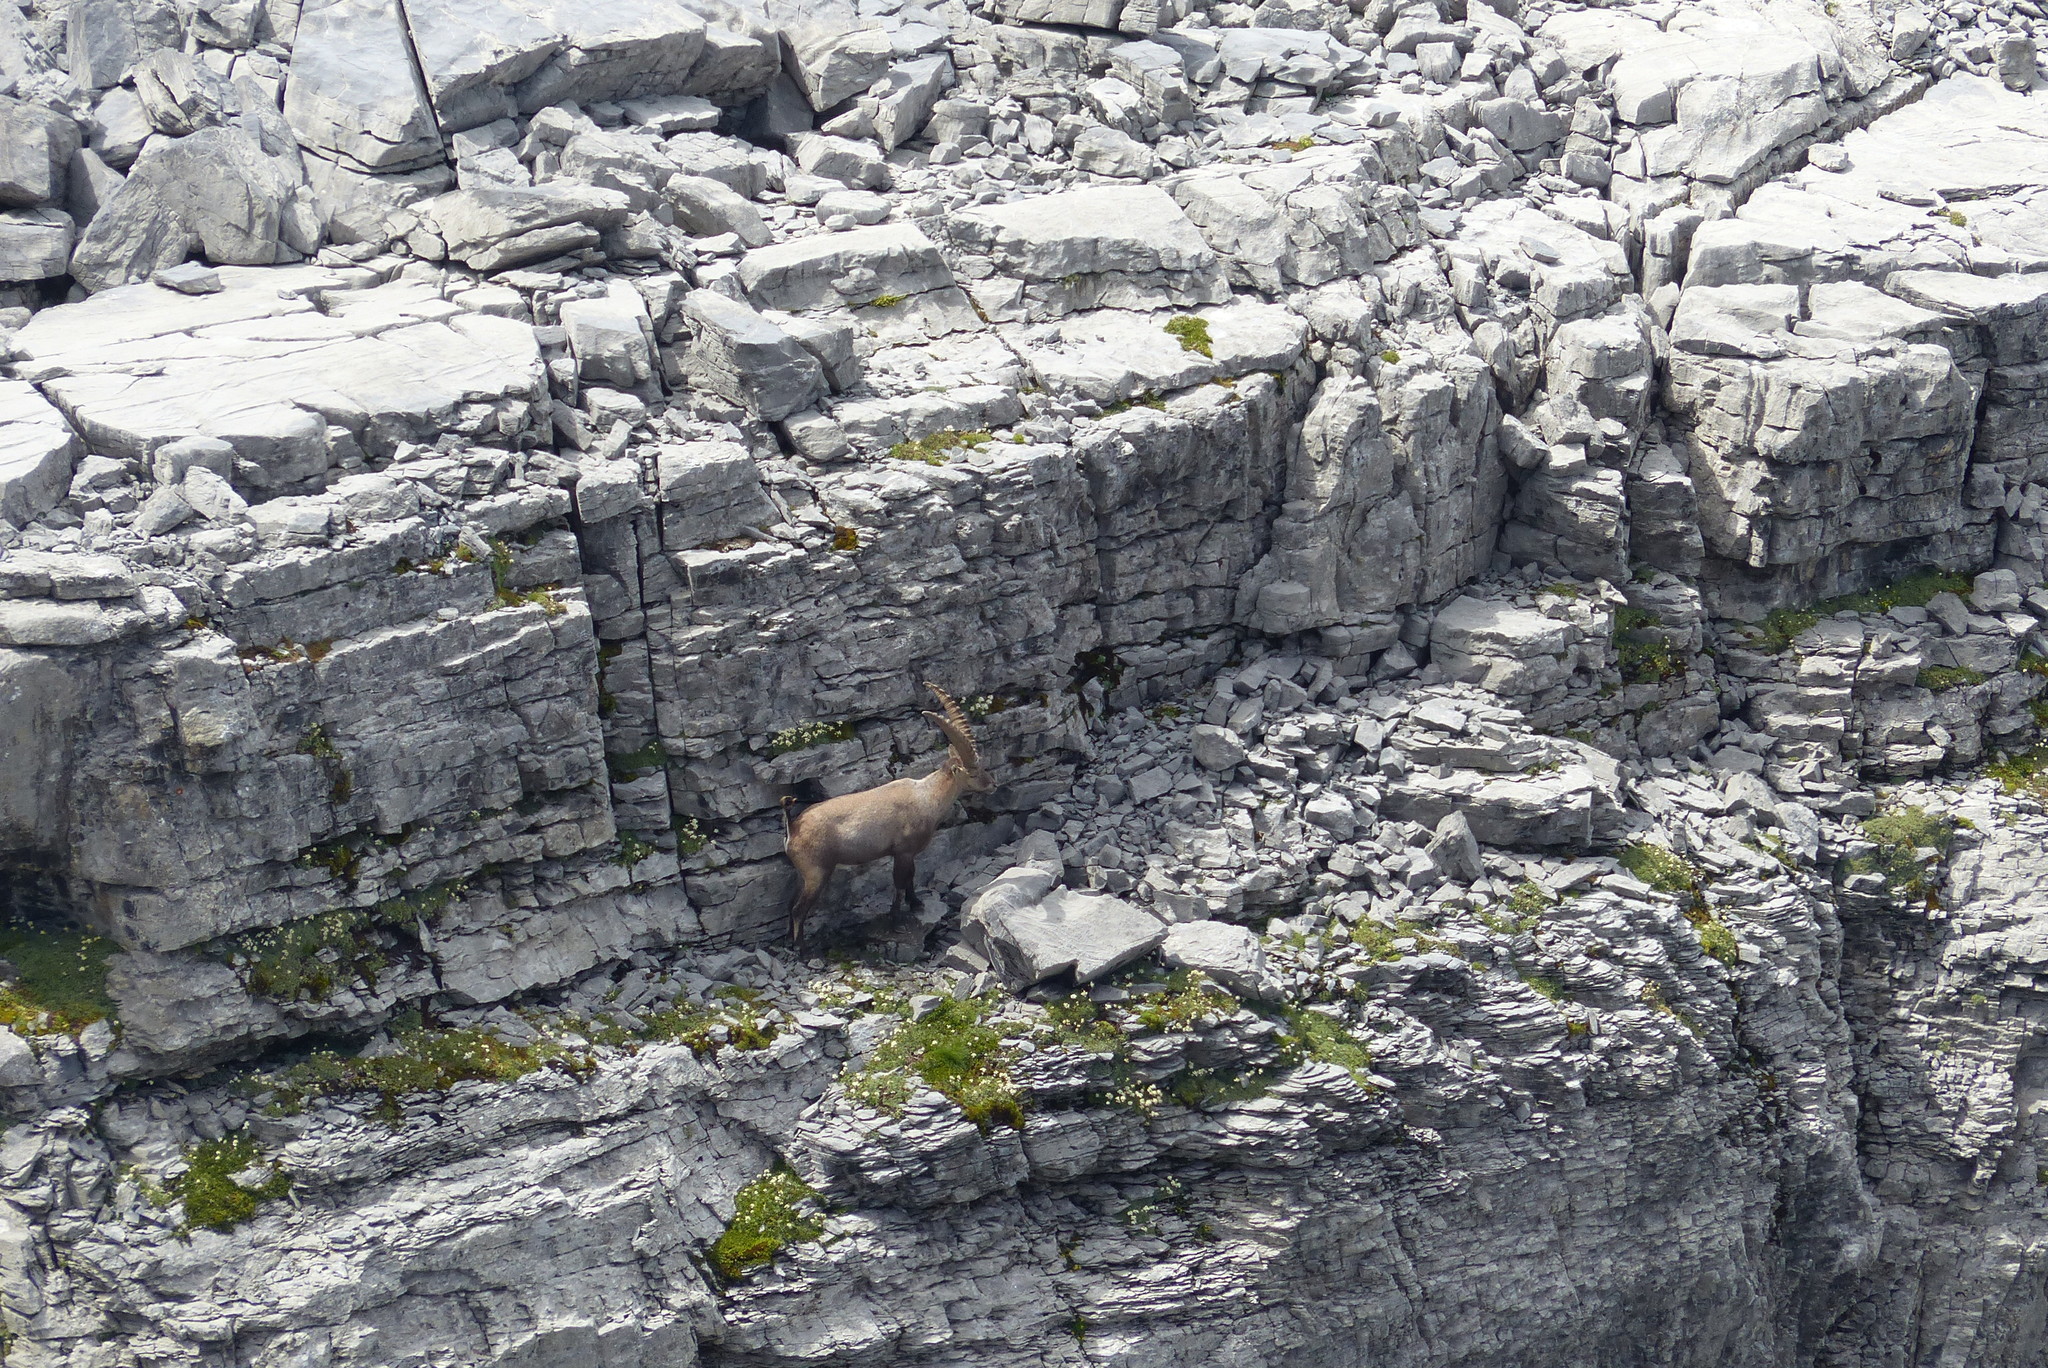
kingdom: Animalia
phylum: Chordata
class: Mammalia
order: Artiodactyla
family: Bovidae
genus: Capra
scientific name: Capra ibex
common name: Alpine ibex
